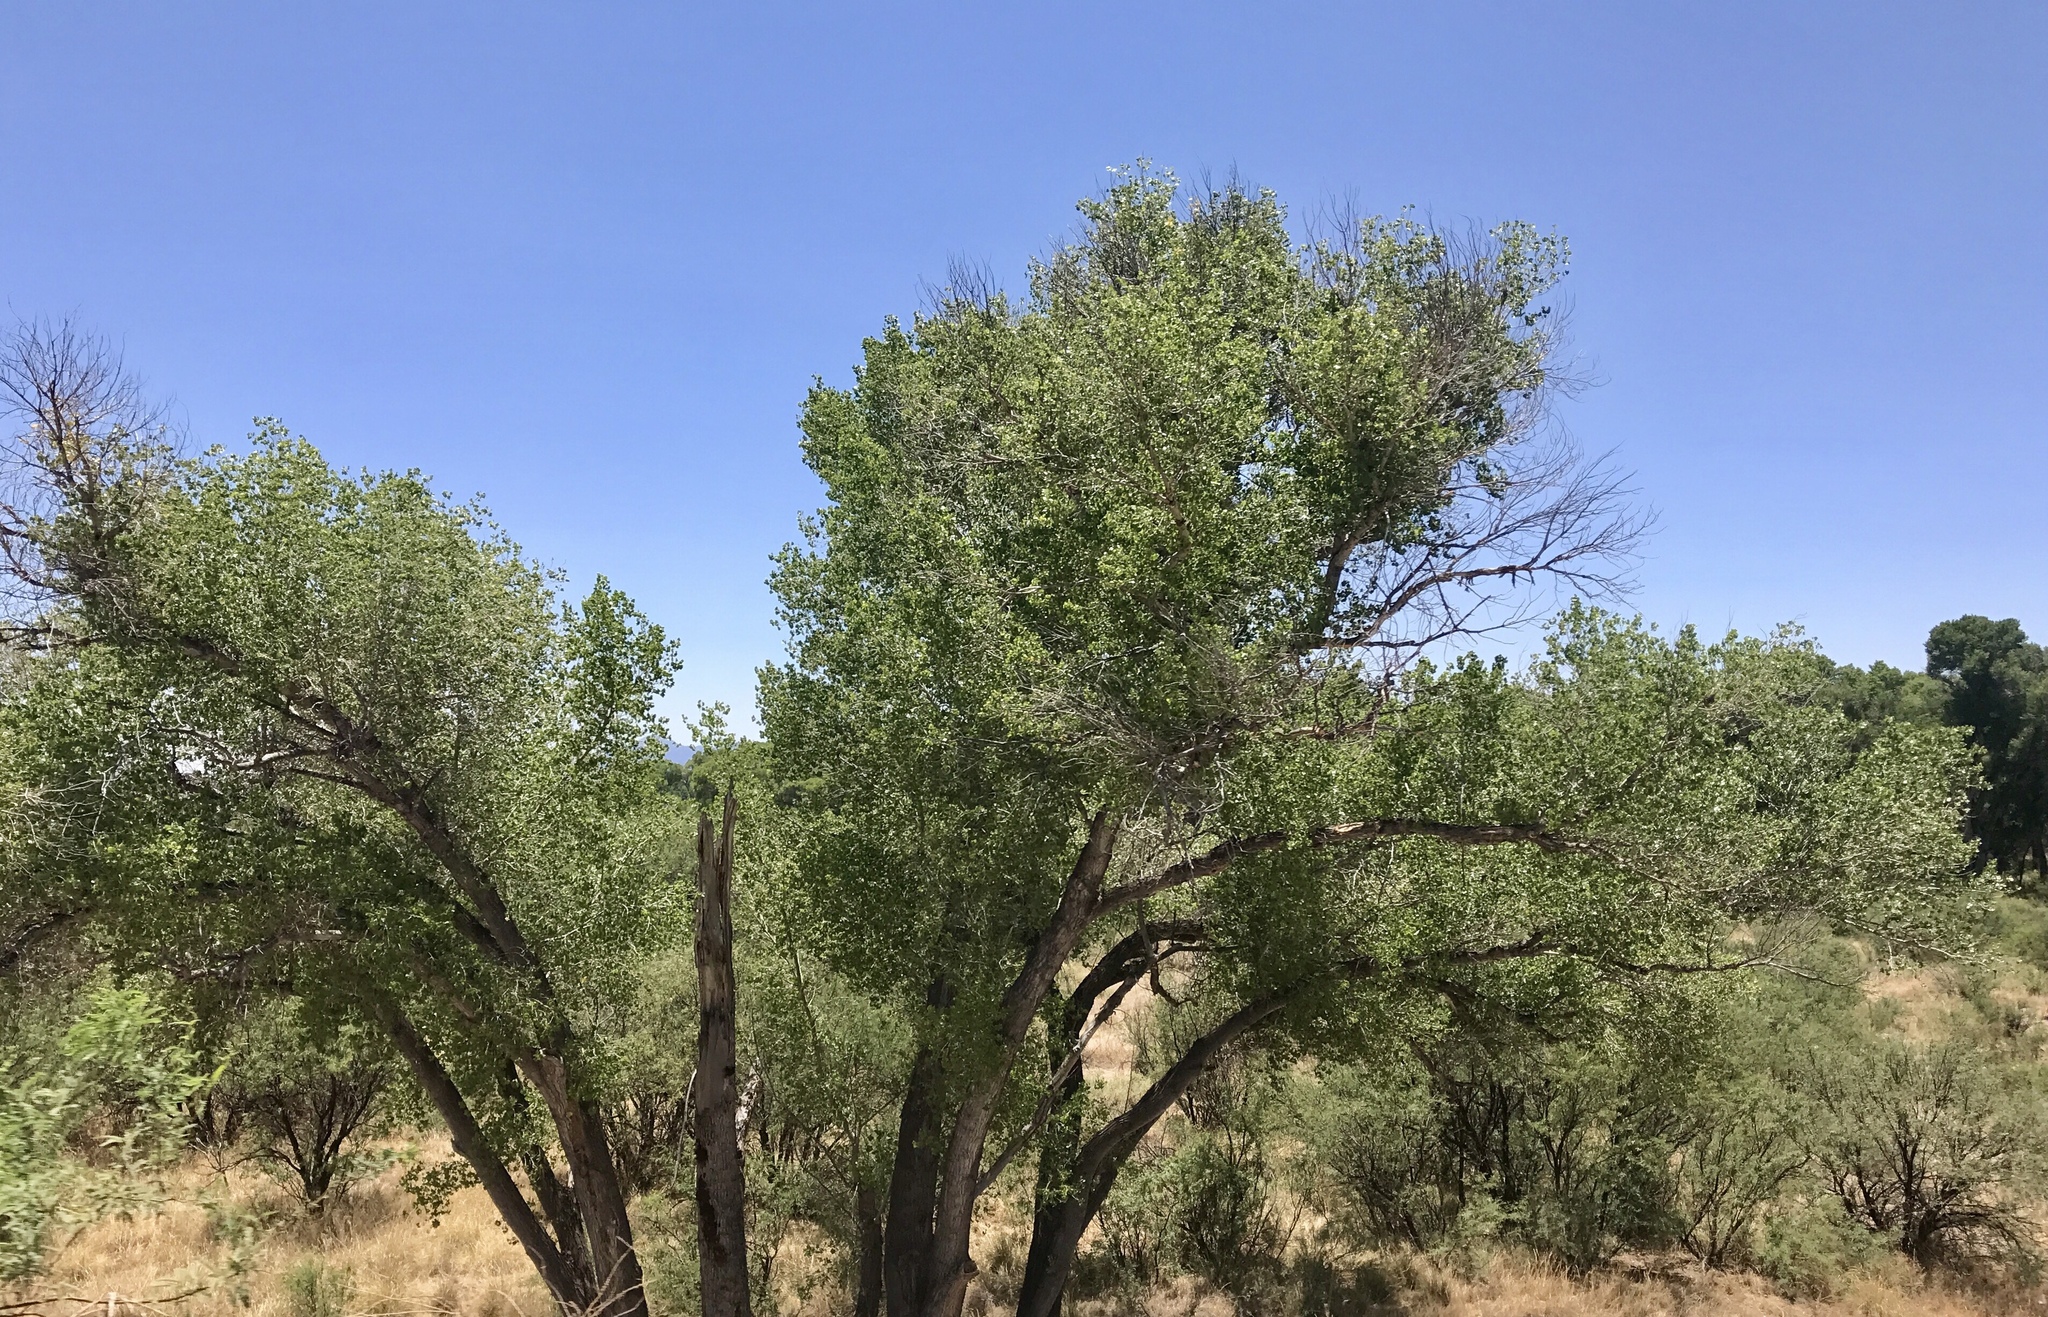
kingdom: Plantae
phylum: Tracheophyta
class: Magnoliopsida
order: Malpighiales
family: Salicaceae
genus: Populus
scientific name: Populus fremontii
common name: Fremont's cottonwood
